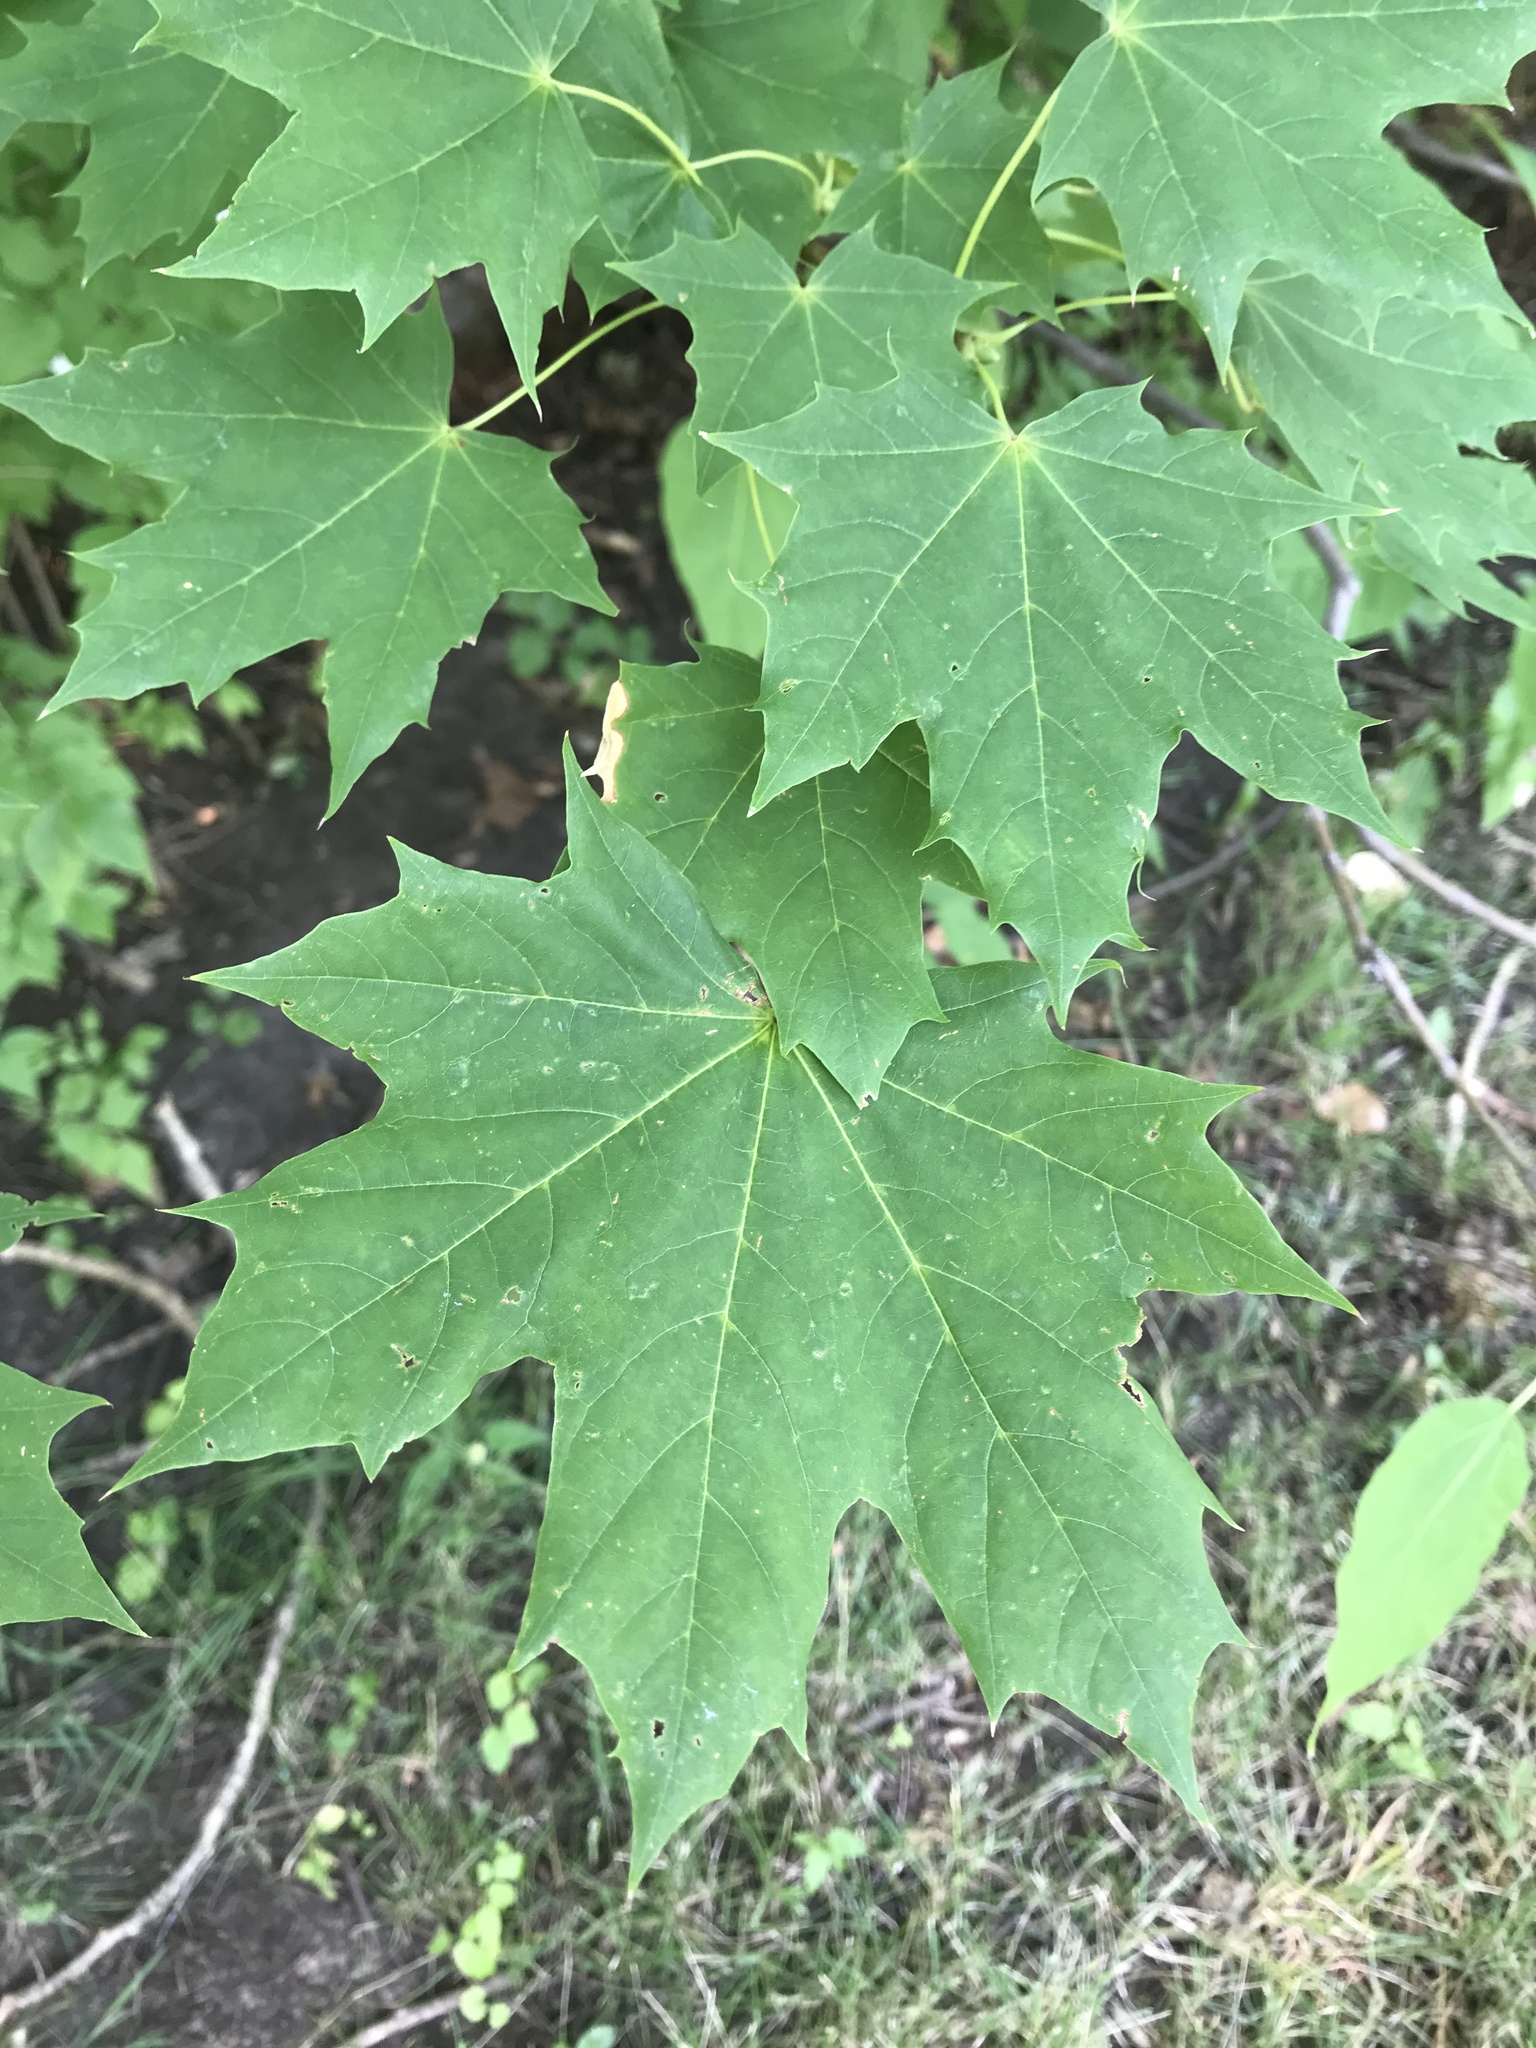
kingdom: Plantae
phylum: Tracheophyta
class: Magnoliopsida
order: Sapindales
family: Sapindaceae
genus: Acer
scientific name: Acer platanoides
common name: Norway maple
